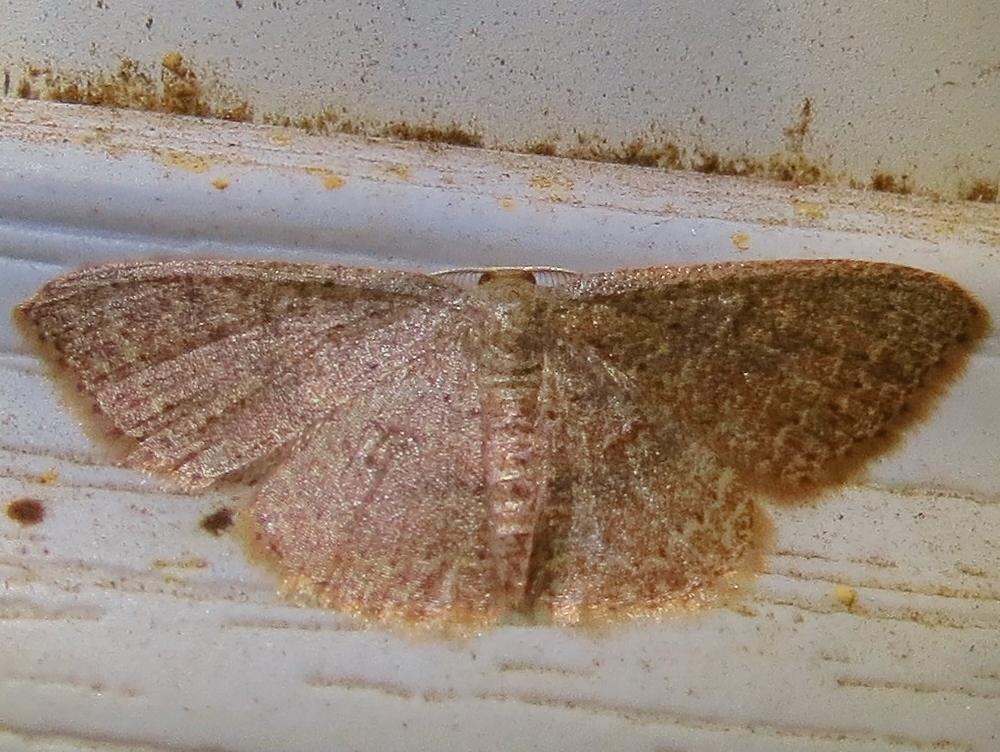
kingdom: Animalia
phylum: Arthropoda
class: Insecta
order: Lepidoptera
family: Geometridae
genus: Pleuroprucha
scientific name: Pleuroprucha insulsaria
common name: Common tan wave
